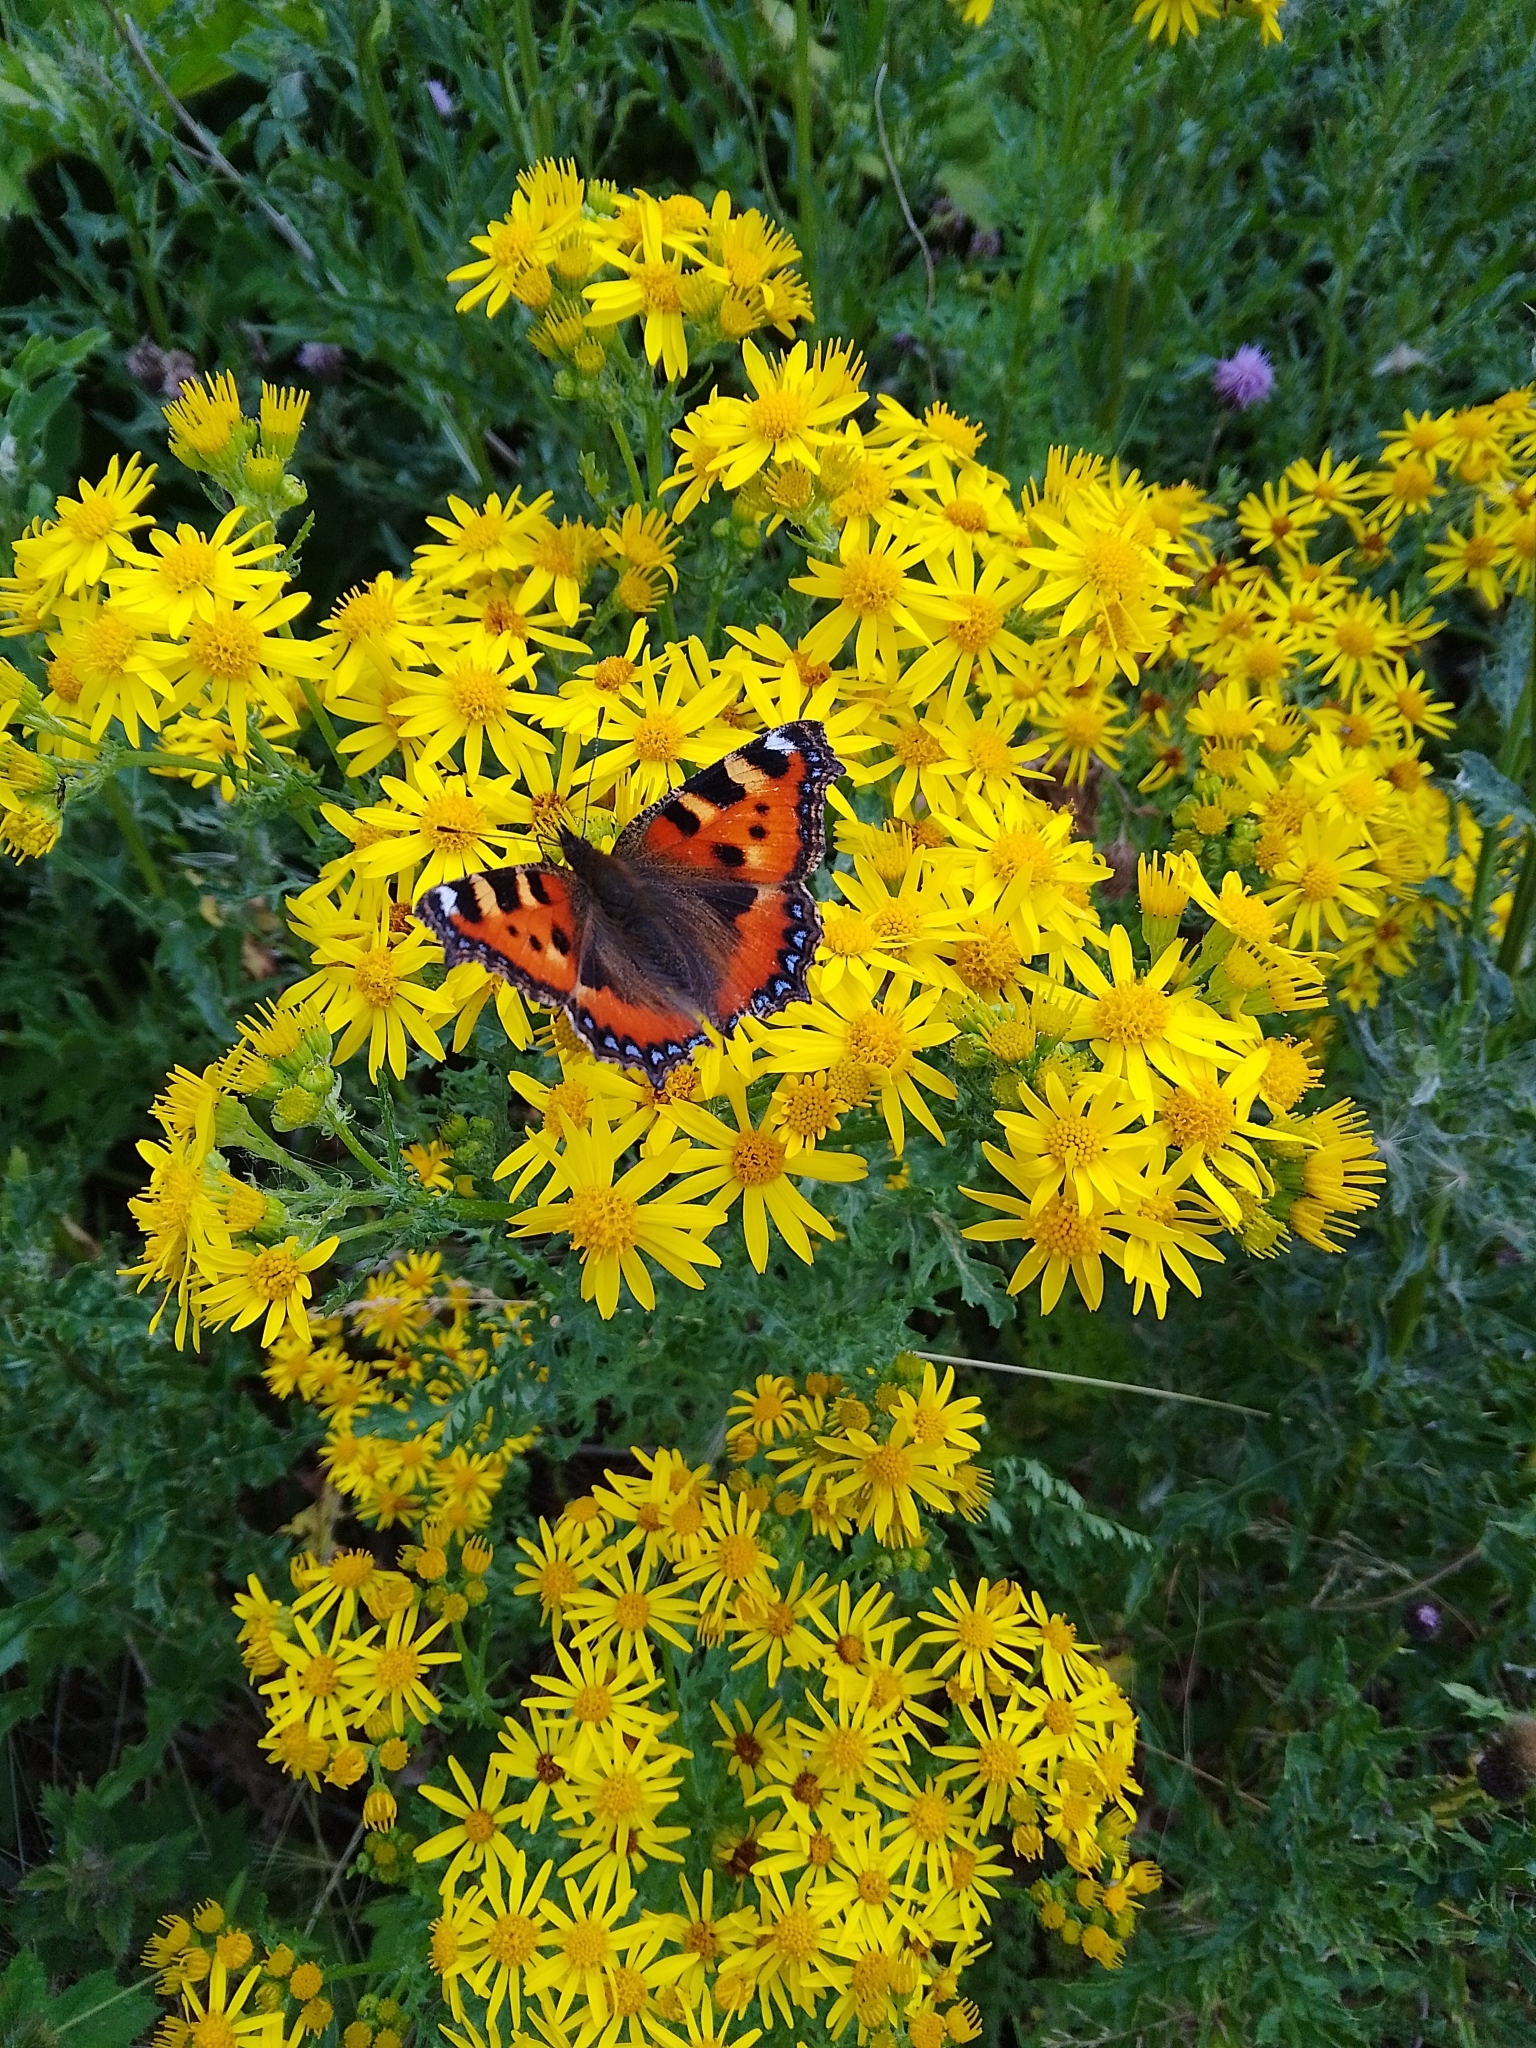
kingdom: Animalia
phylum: Arthropoda
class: Insecta
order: Lepidoptera
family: Nymphalidae
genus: Aglais
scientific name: Aglais urticae
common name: Small tortoiseshell
